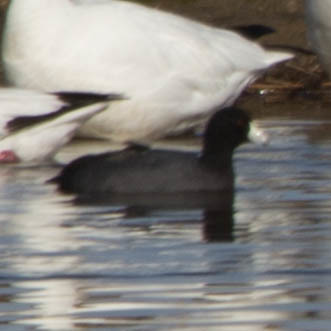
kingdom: Animalia
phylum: Chordata
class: Aves
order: Gruiformes
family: Rallidae
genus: Fulica
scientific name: Fulica americana
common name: American coot
